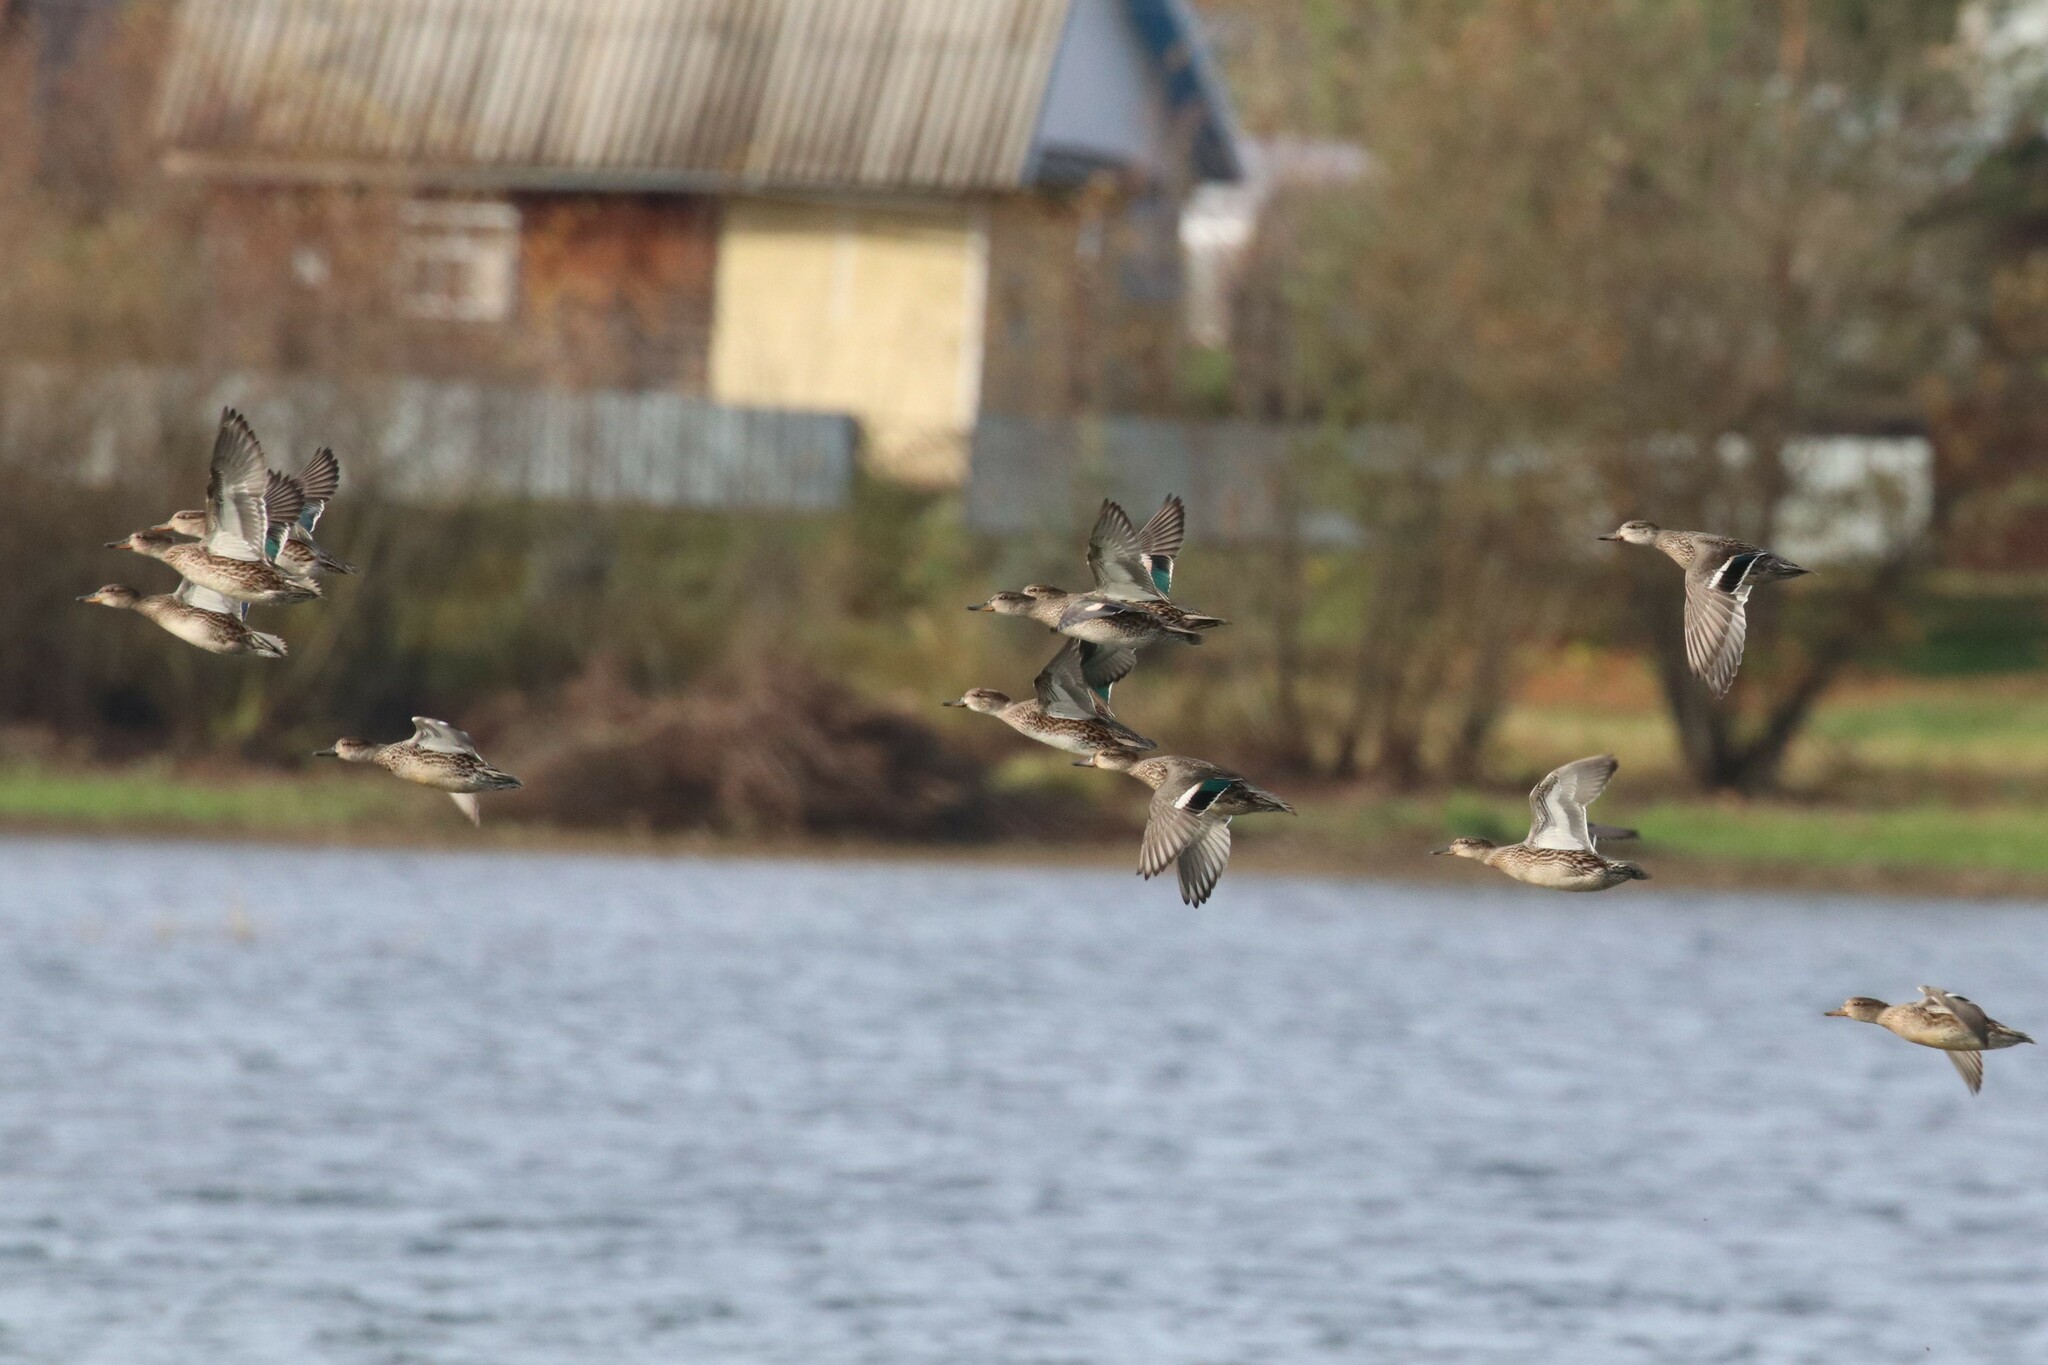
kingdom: Animalia
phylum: Chordata
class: Aves
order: Anseriformes
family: Anatidae
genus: Anas
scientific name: Anas crecca
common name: Eurasian teal
